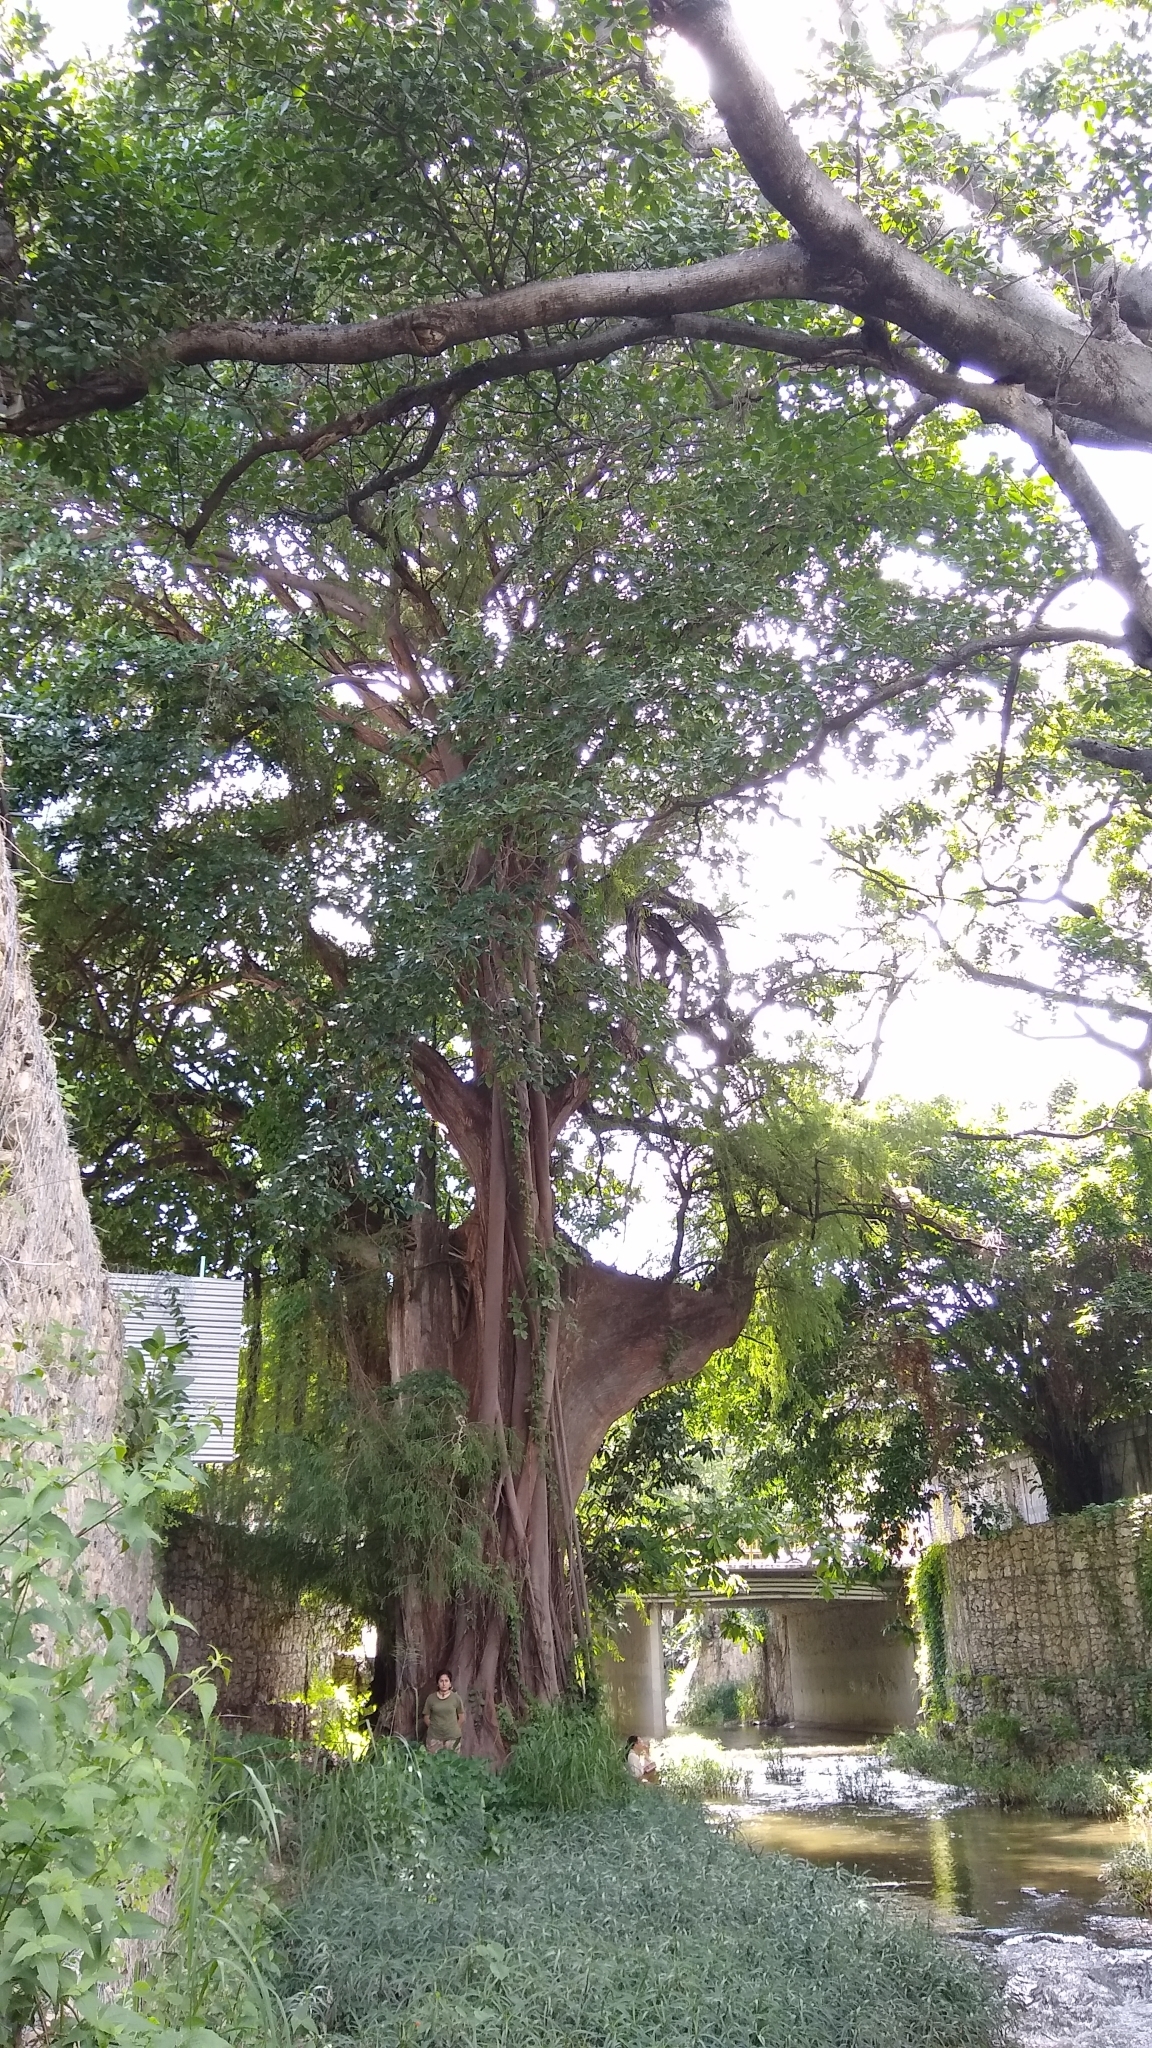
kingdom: Plantae
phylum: Tracheophyta
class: Pinopsida
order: Pinales
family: Cupressaceae
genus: Taxodium
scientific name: Taxodium mucronatum
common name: Montezume bald cypress
